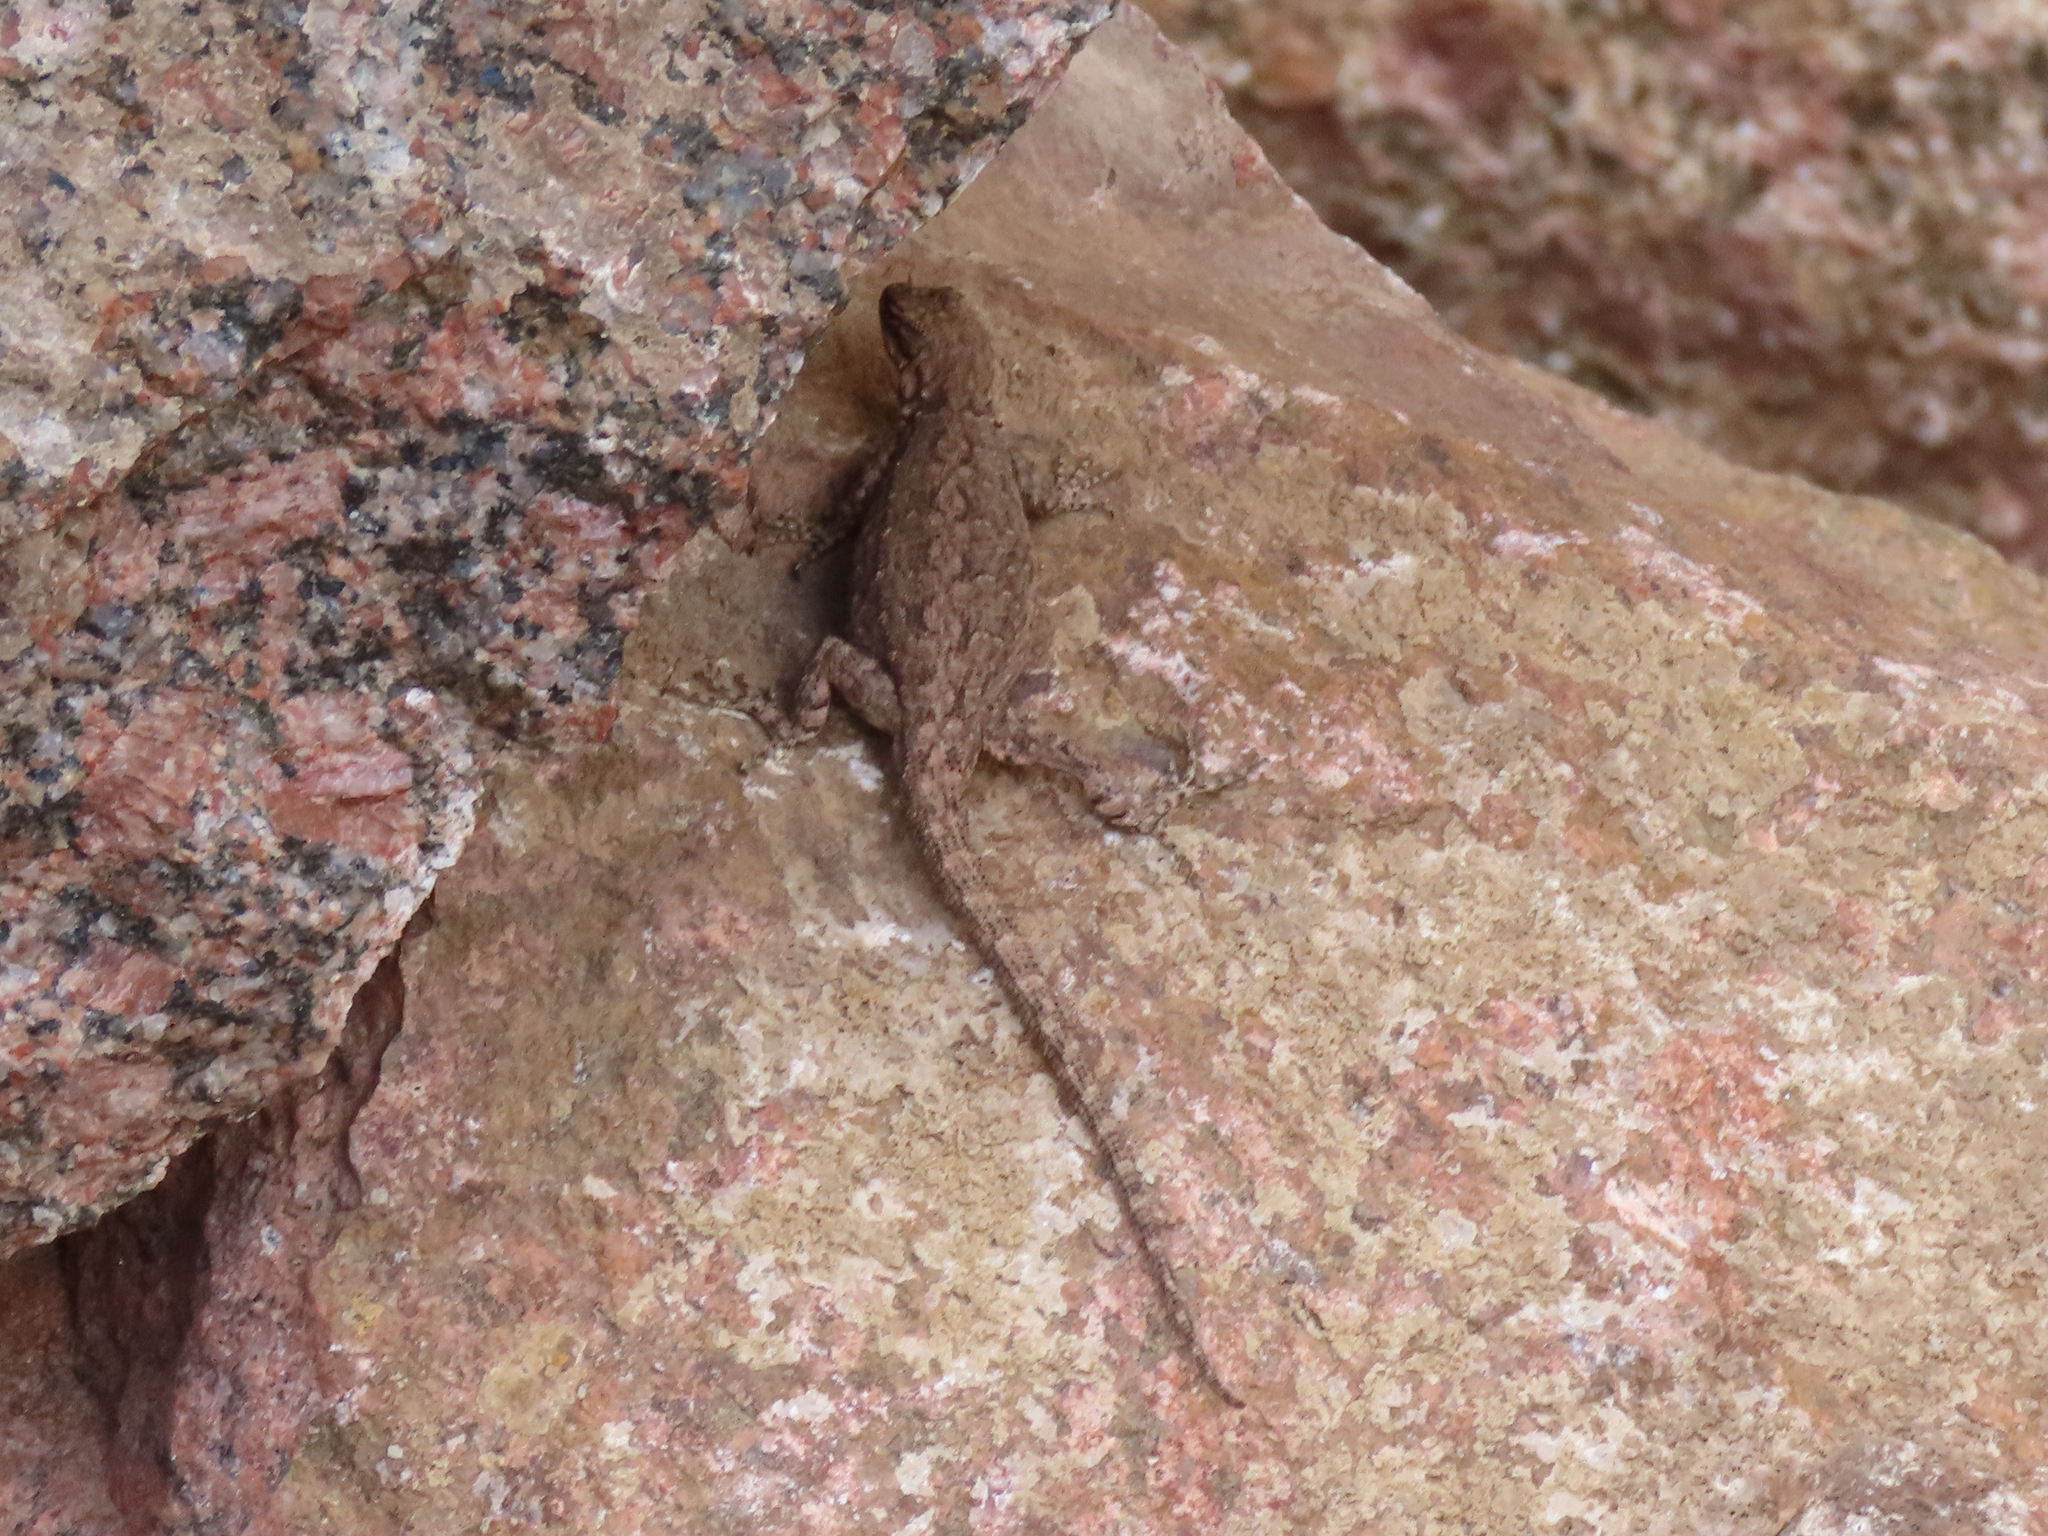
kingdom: Animalia
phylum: Chordata
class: Squamata
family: Phrynosomatidae
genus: Urosaurus
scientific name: Urosaurus ornatus
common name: Ornate tree lizard
